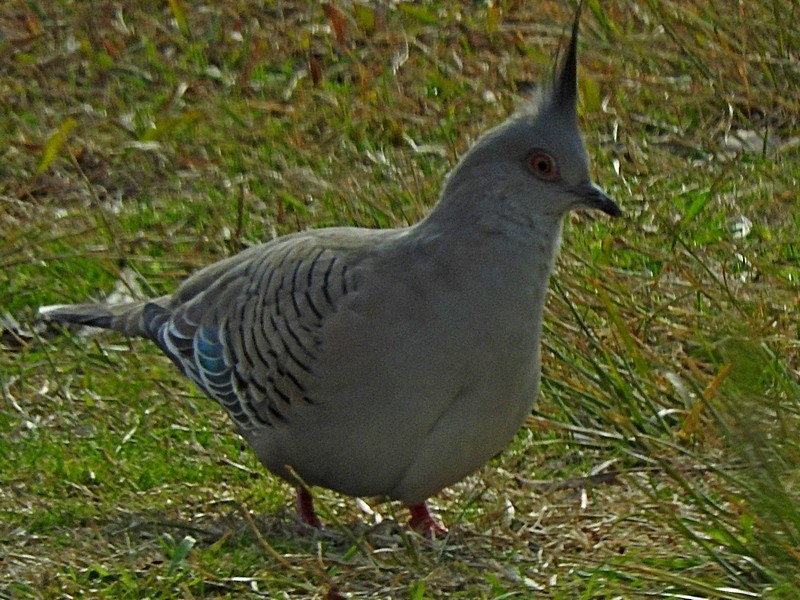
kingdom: Animalia
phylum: Chordata
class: Aves
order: Columbiformes
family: Columbidae
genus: Ocyphaps
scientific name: Ocyphaps lophotes
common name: Crested pigeon
